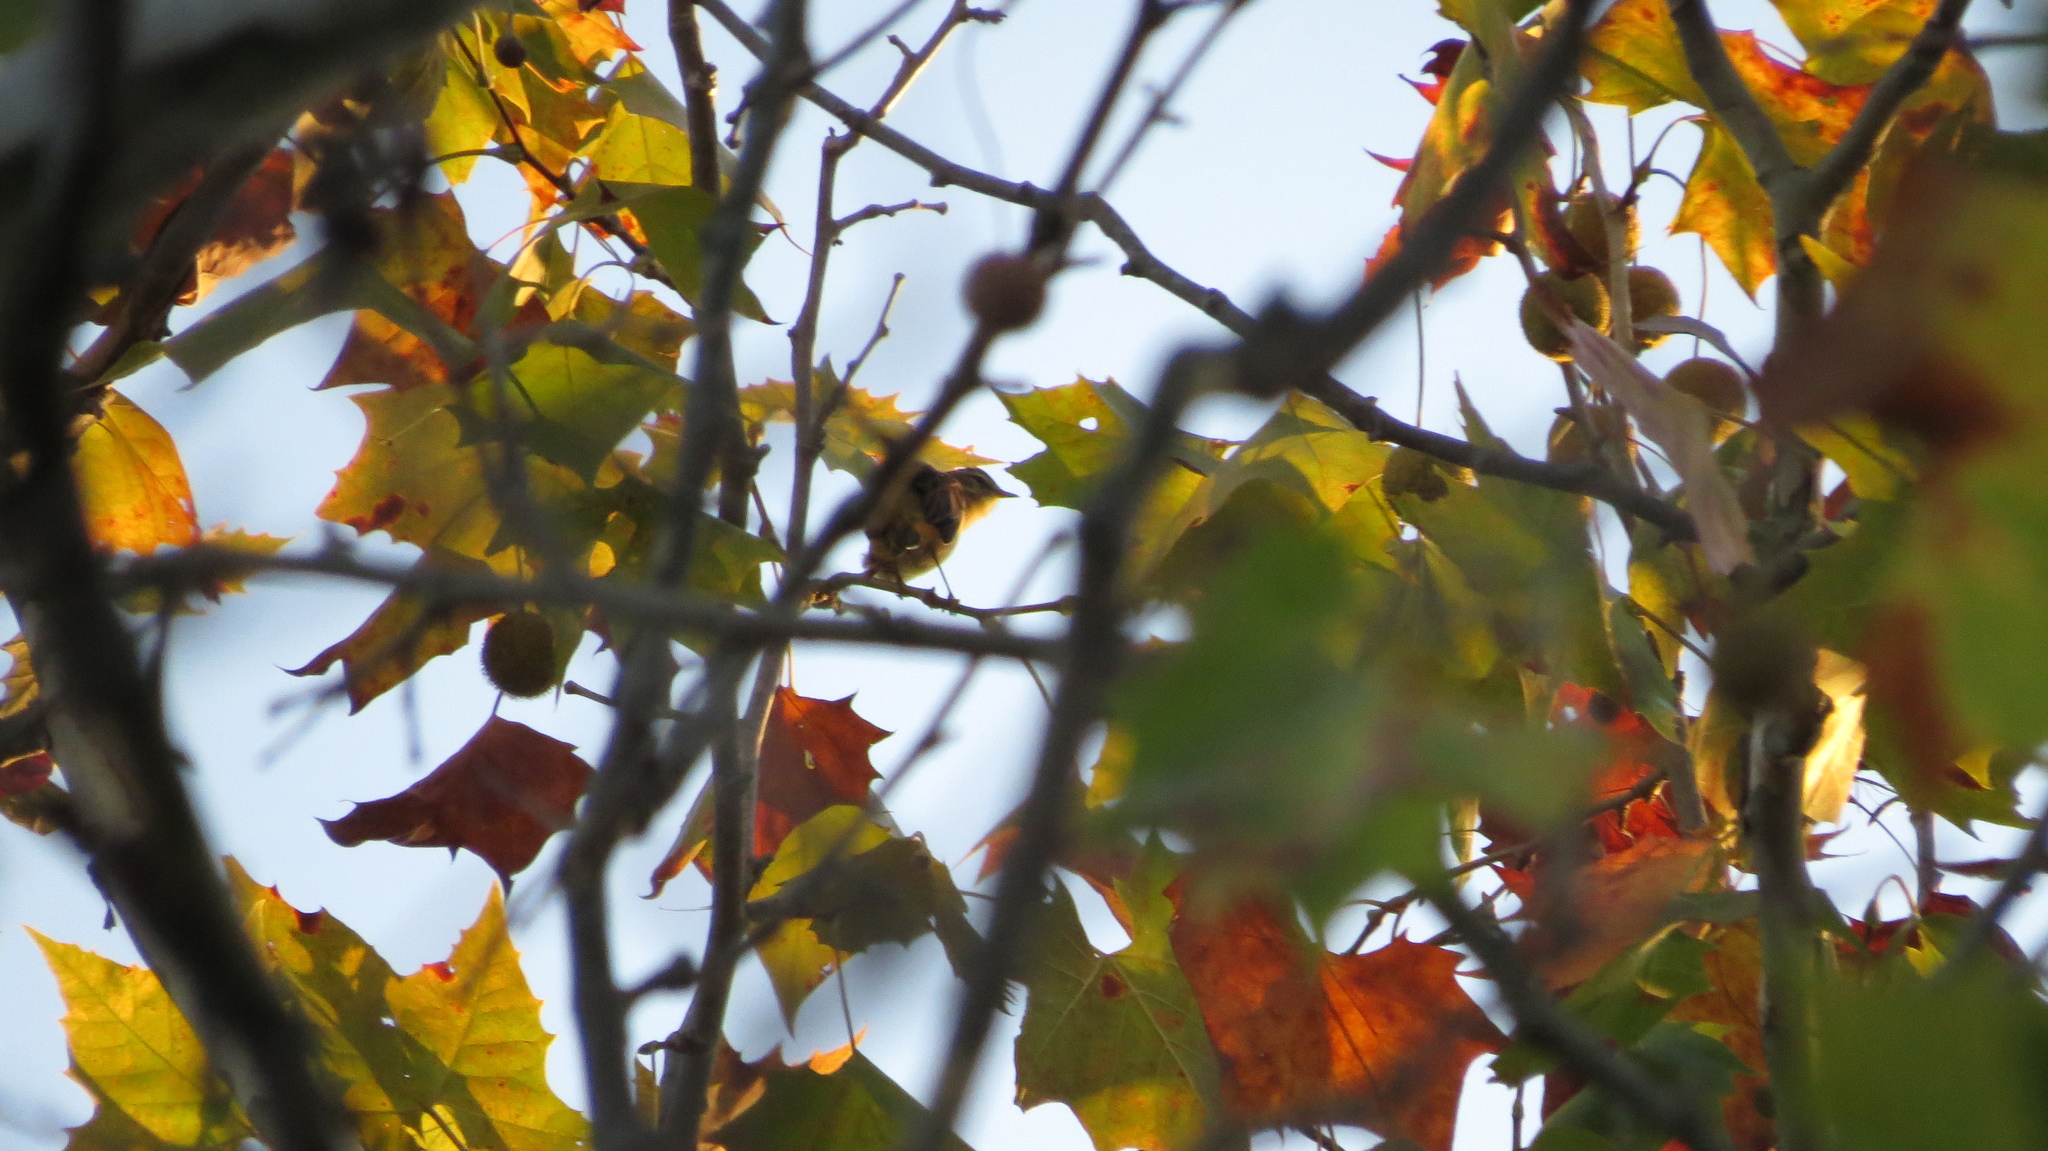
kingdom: Animalia
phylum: Chordata
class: Aves
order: Passeriformes
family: Parulidae
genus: Setophaga
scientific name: Setophaga palmarum
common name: Palm warbler
